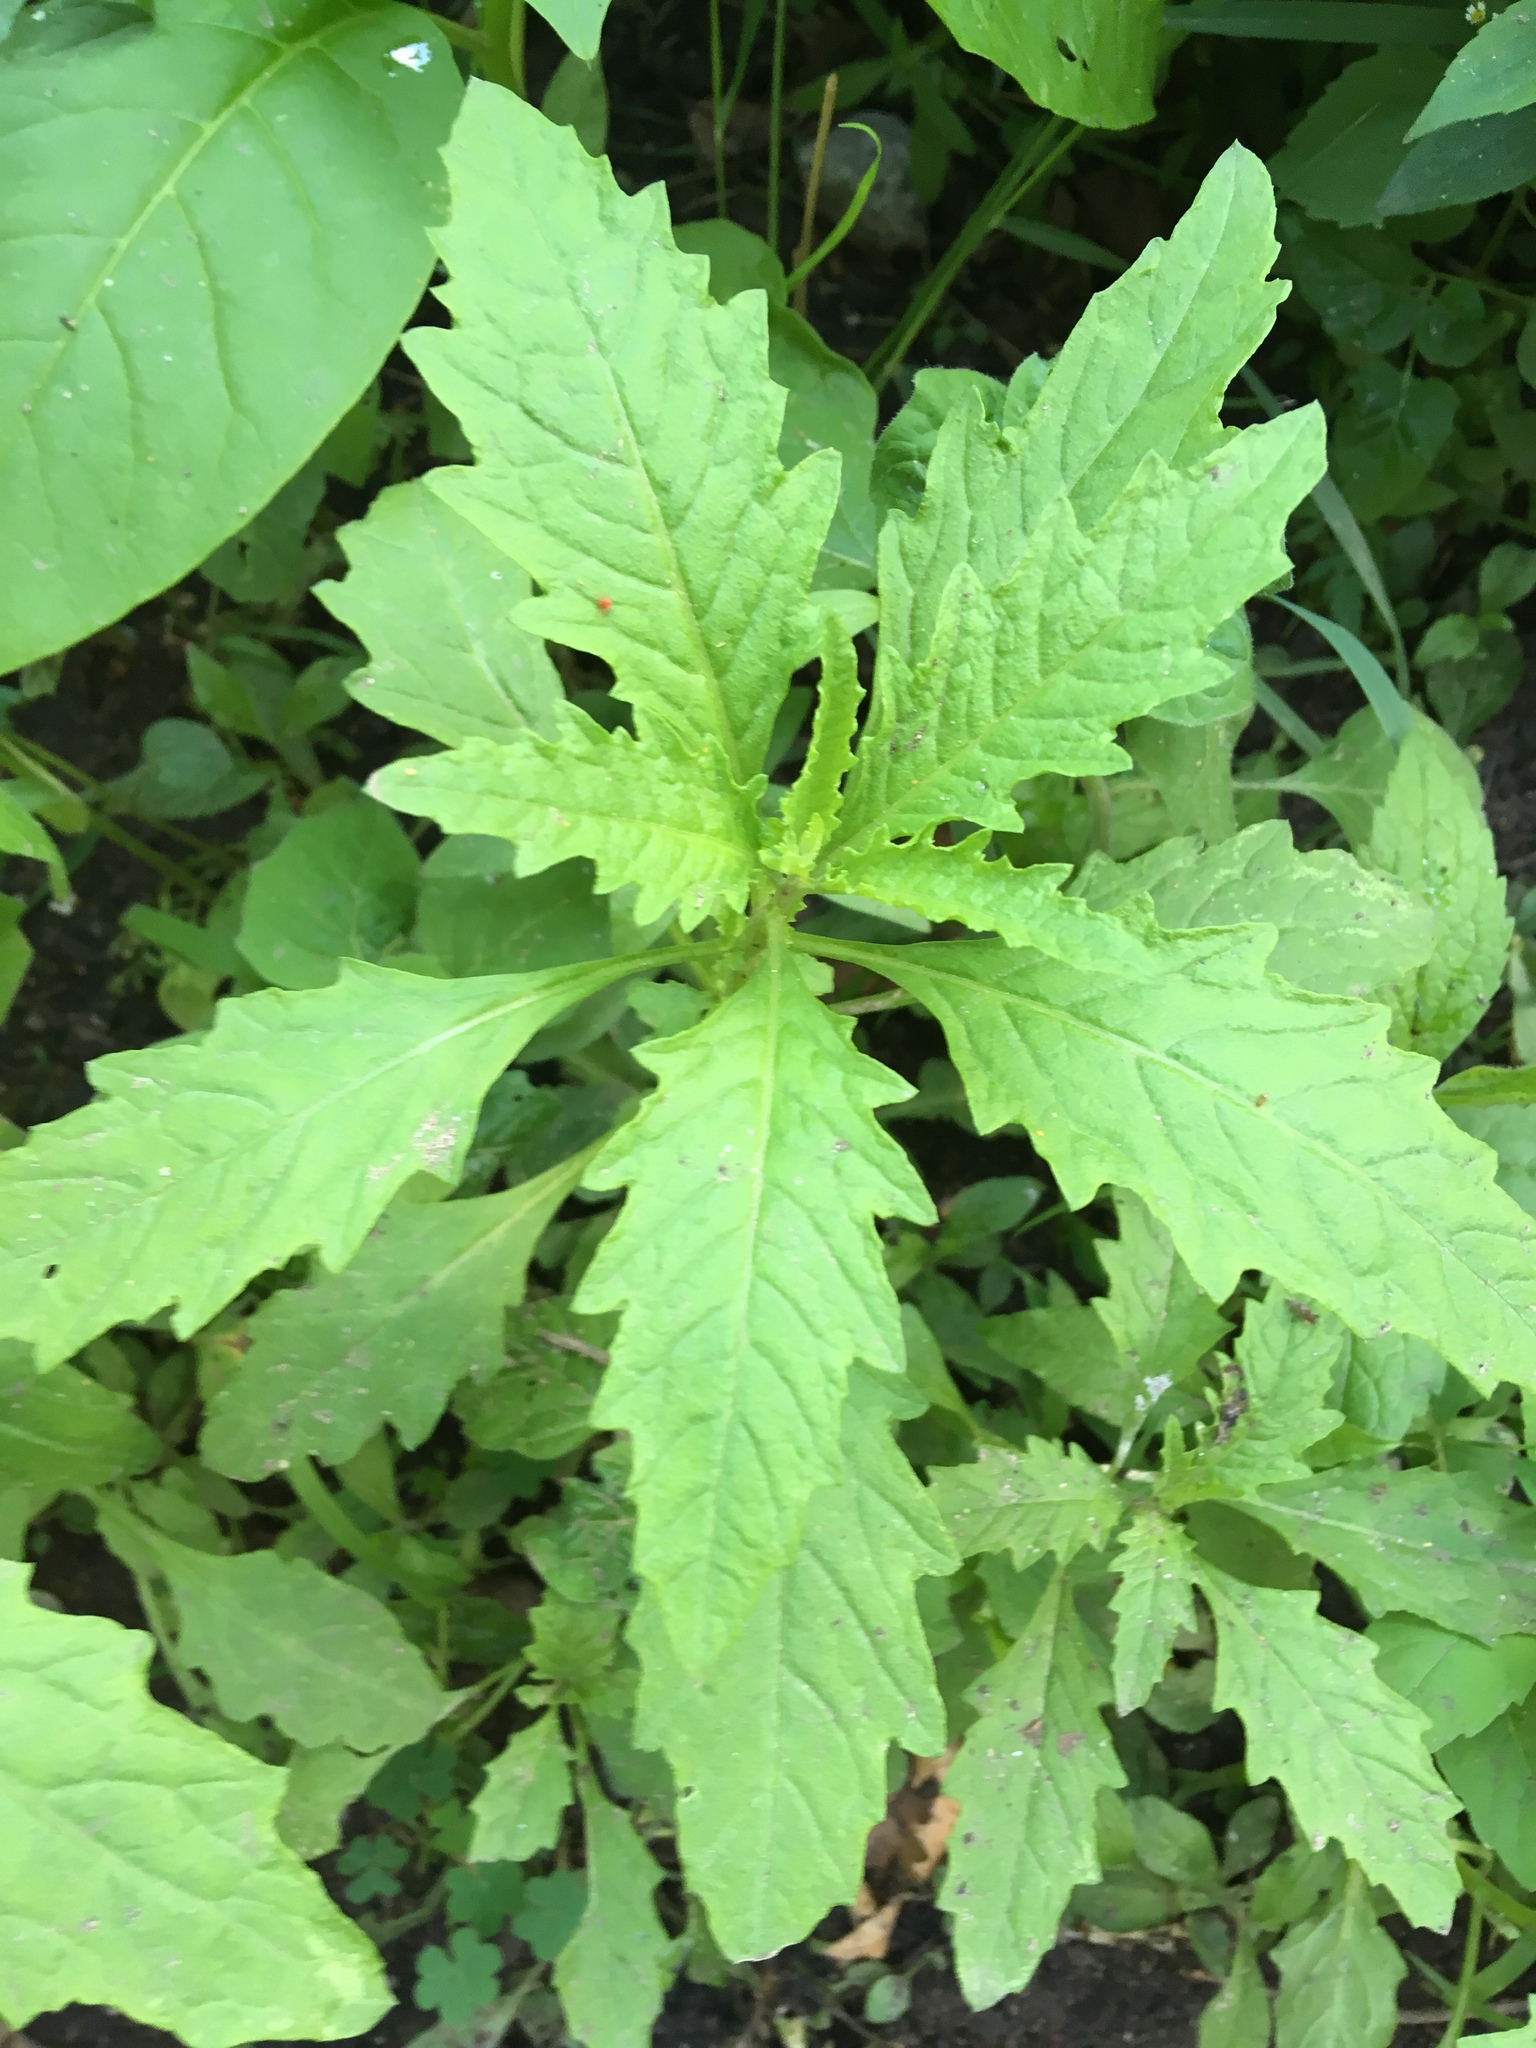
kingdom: Plantae
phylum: Tracheophyta
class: Magnoliopsida
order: Caryophyllales
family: Amaranthaceae
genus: Dysphania
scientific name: Dysphania ambrosioides
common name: Wormseed
